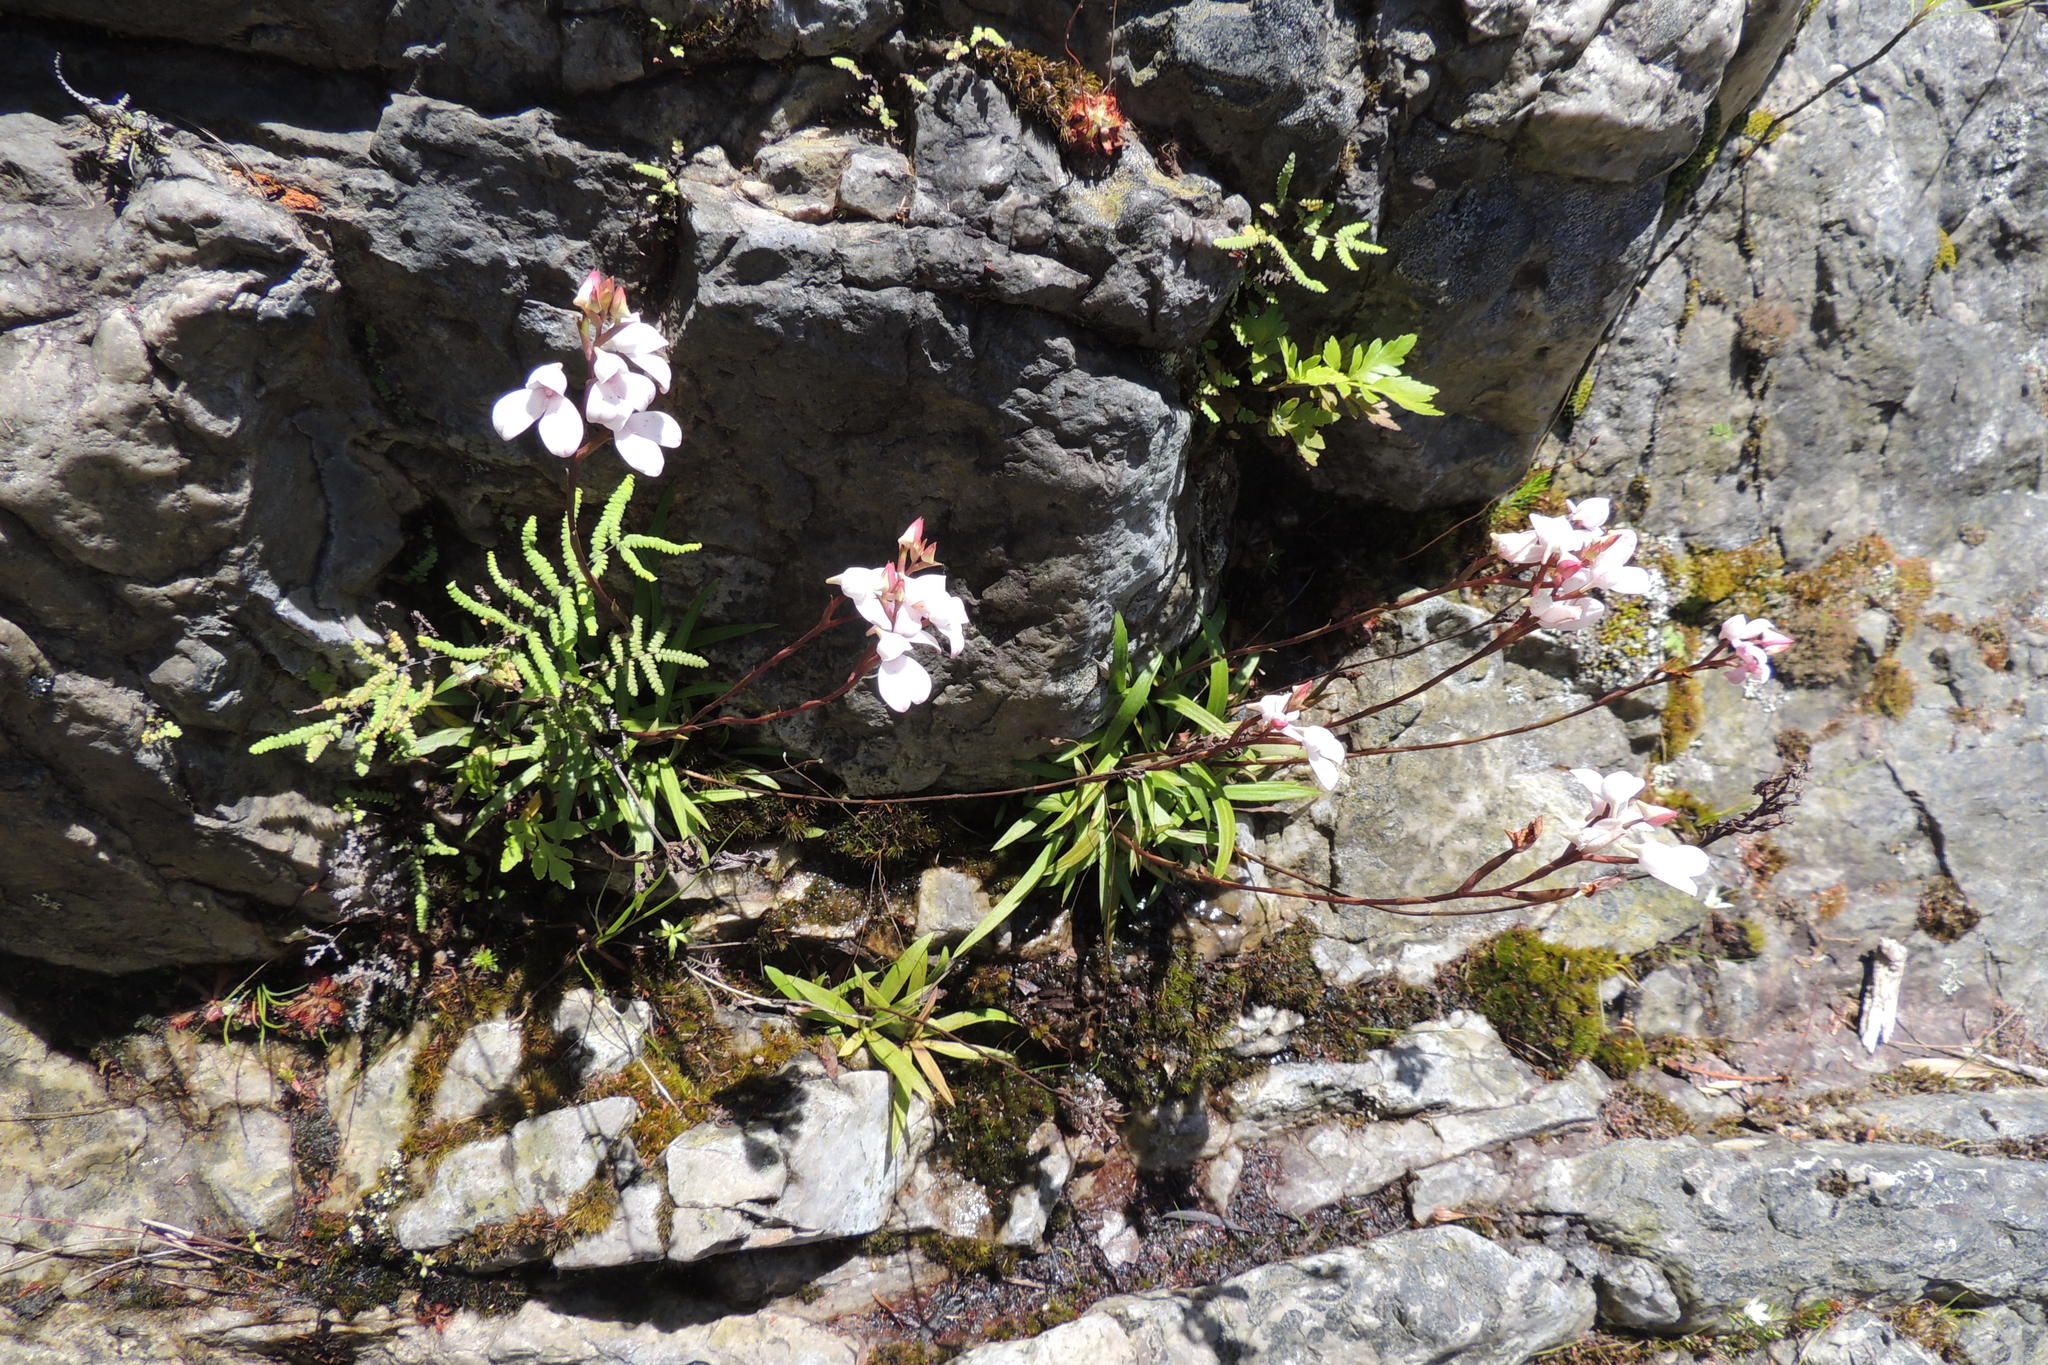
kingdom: Plantae
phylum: Tracheophyta
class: Liliopsida
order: Asparagales
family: Orchidaceae
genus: Disa
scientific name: Disa tripetaloides
